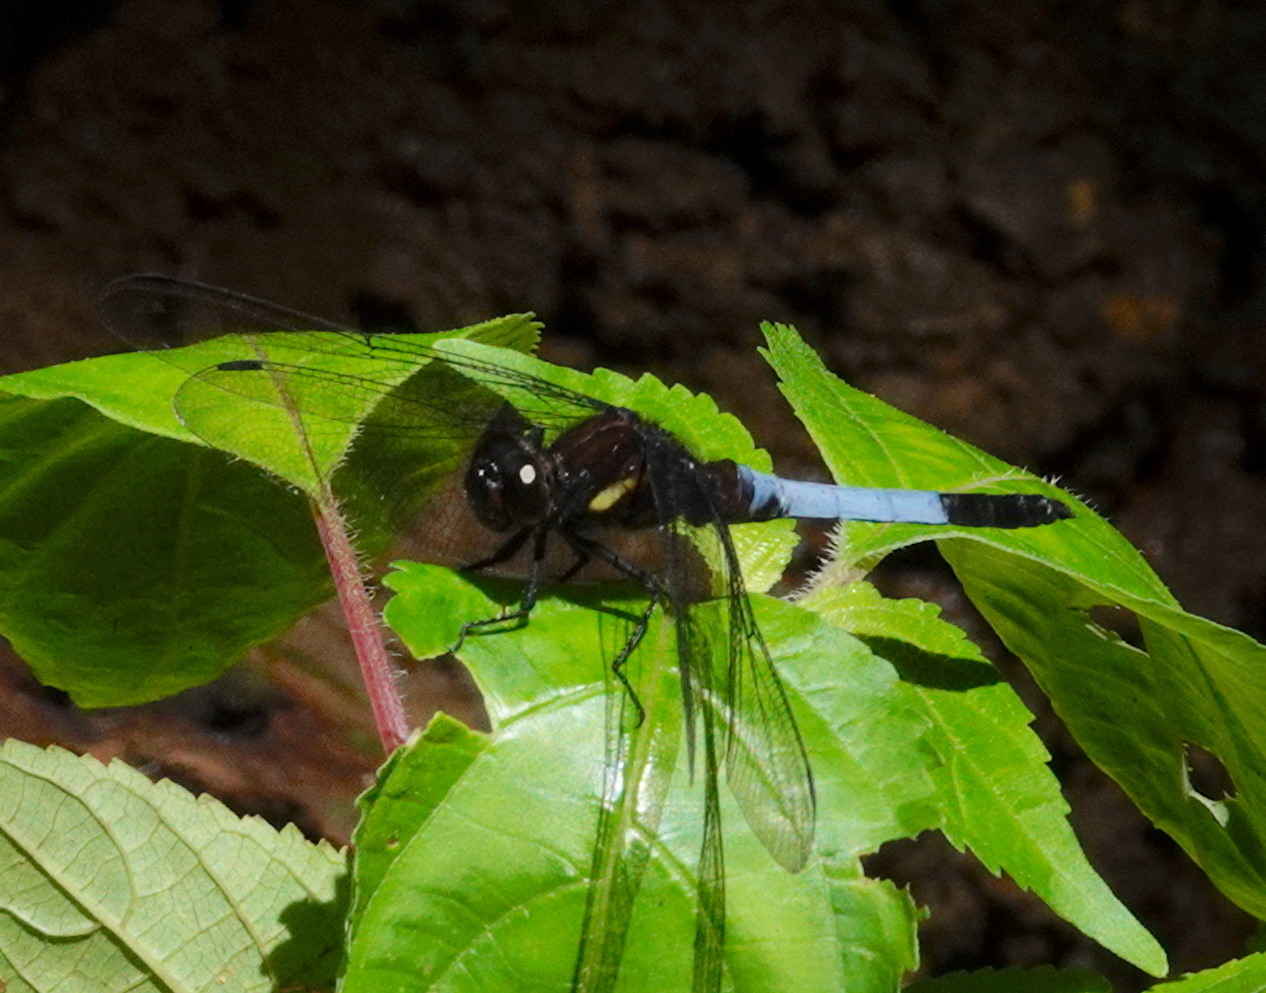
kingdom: Animalia
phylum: Arthropoda
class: Insecta
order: Odonata
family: Libellulidae
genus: Orthetrum
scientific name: Orthetrum triangulare
